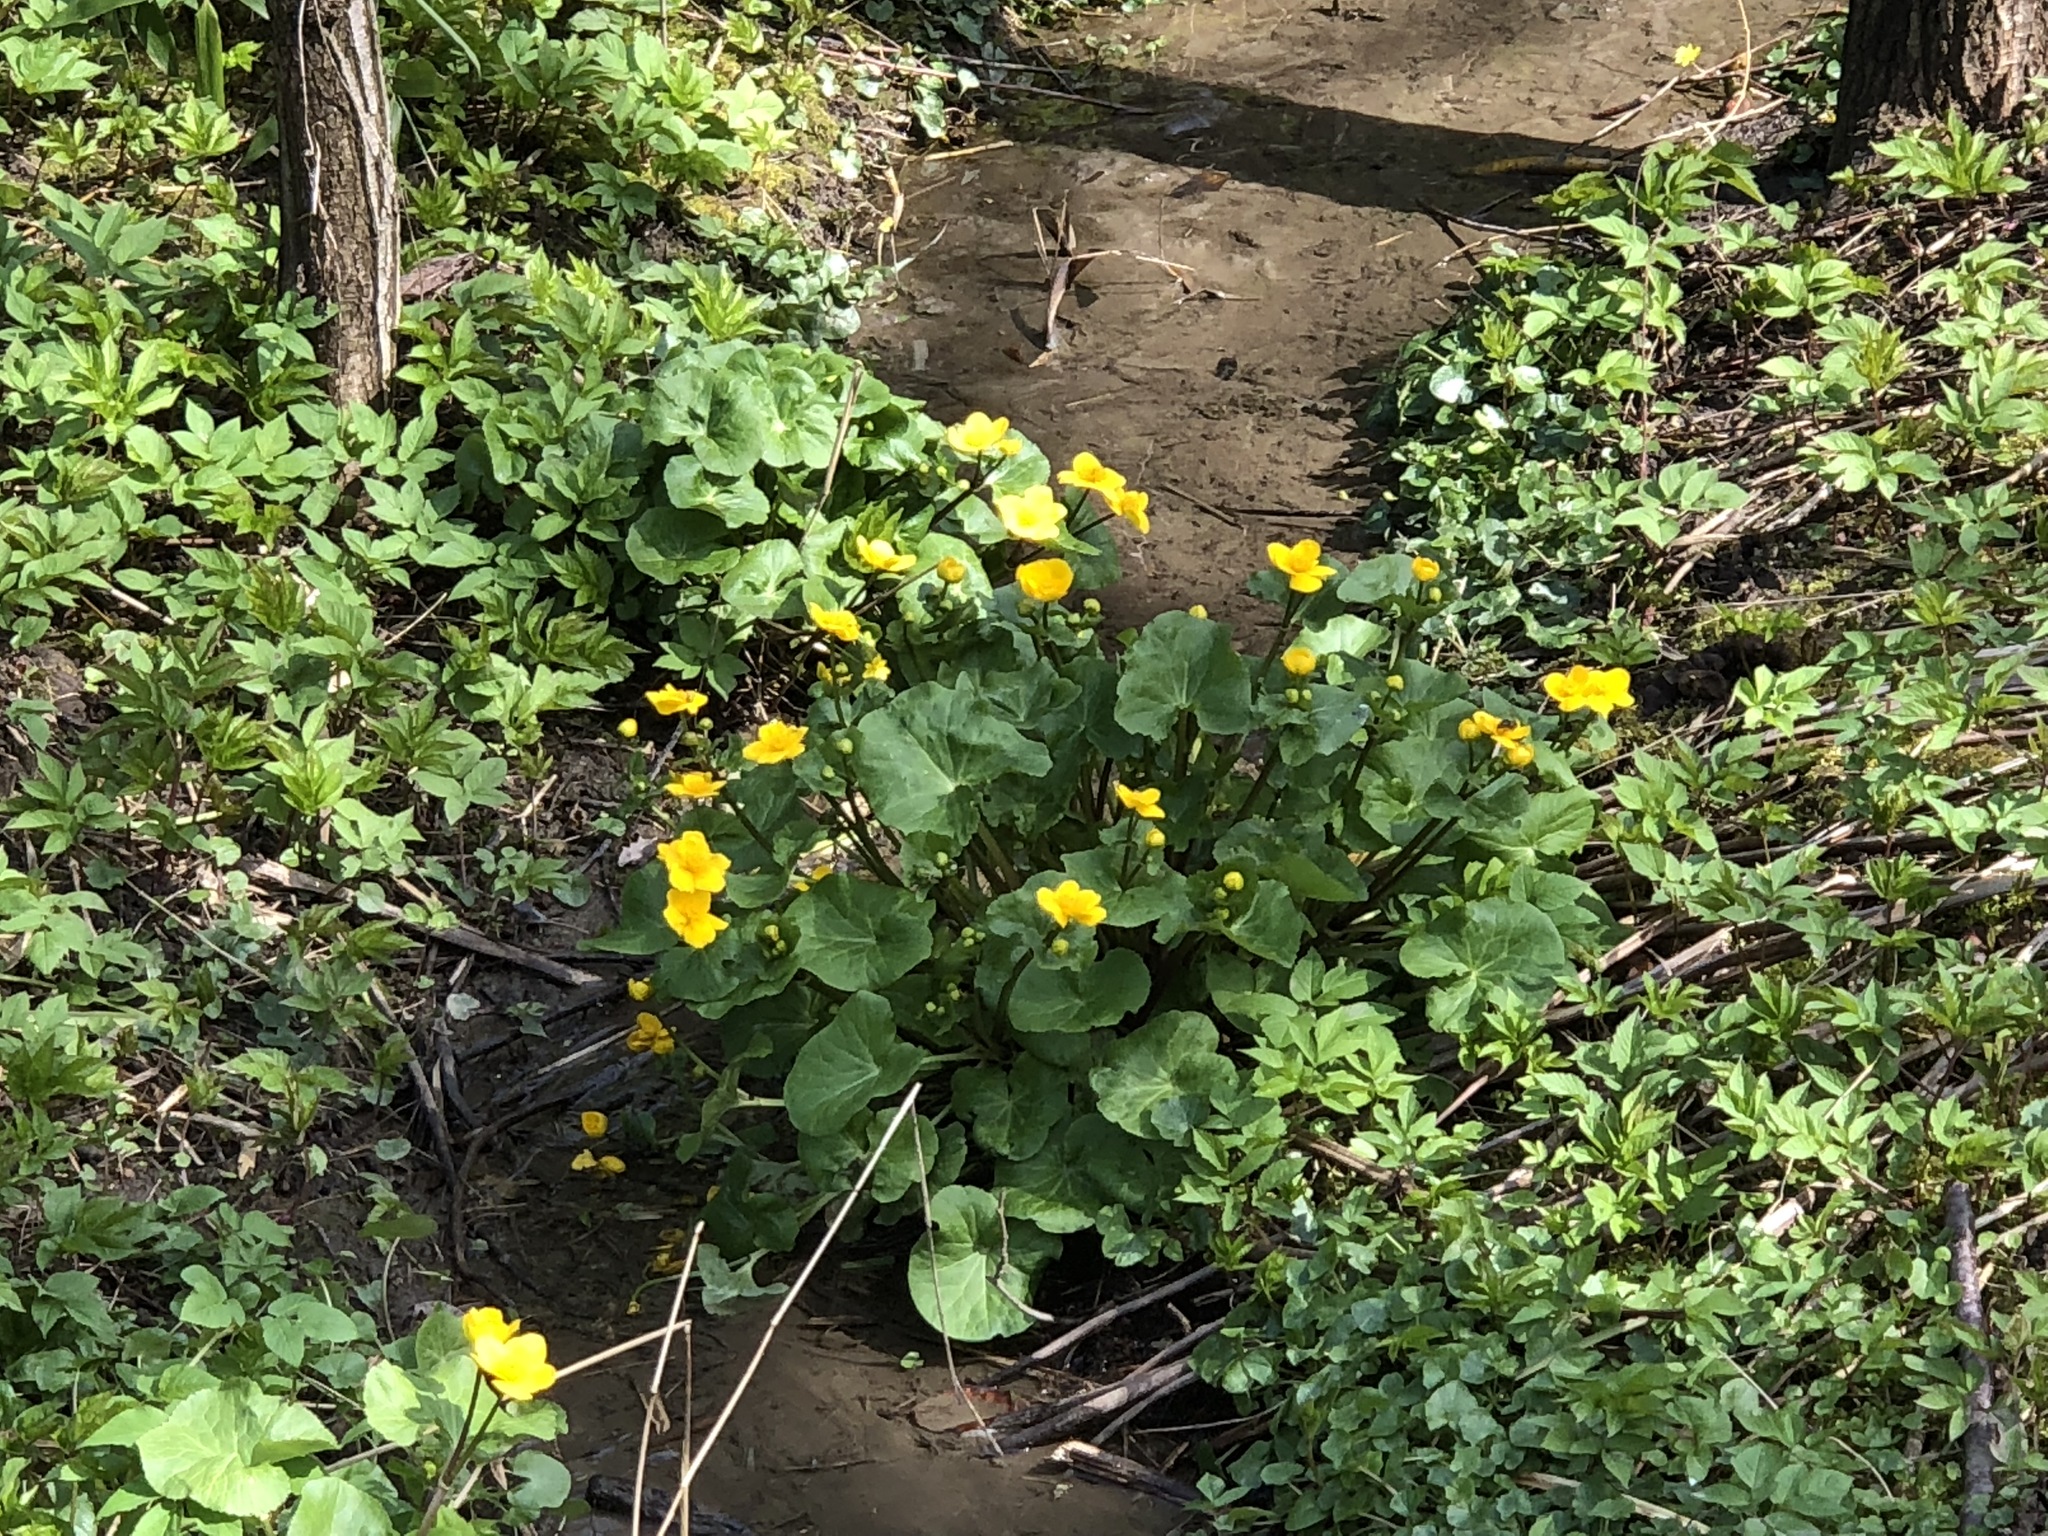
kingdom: Plantae
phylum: Tracheophyta
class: Magnoliopsida
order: Ranunculales
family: Ranunculaceae
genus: Caltha
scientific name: Caltha palustris
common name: Marsh marigold
